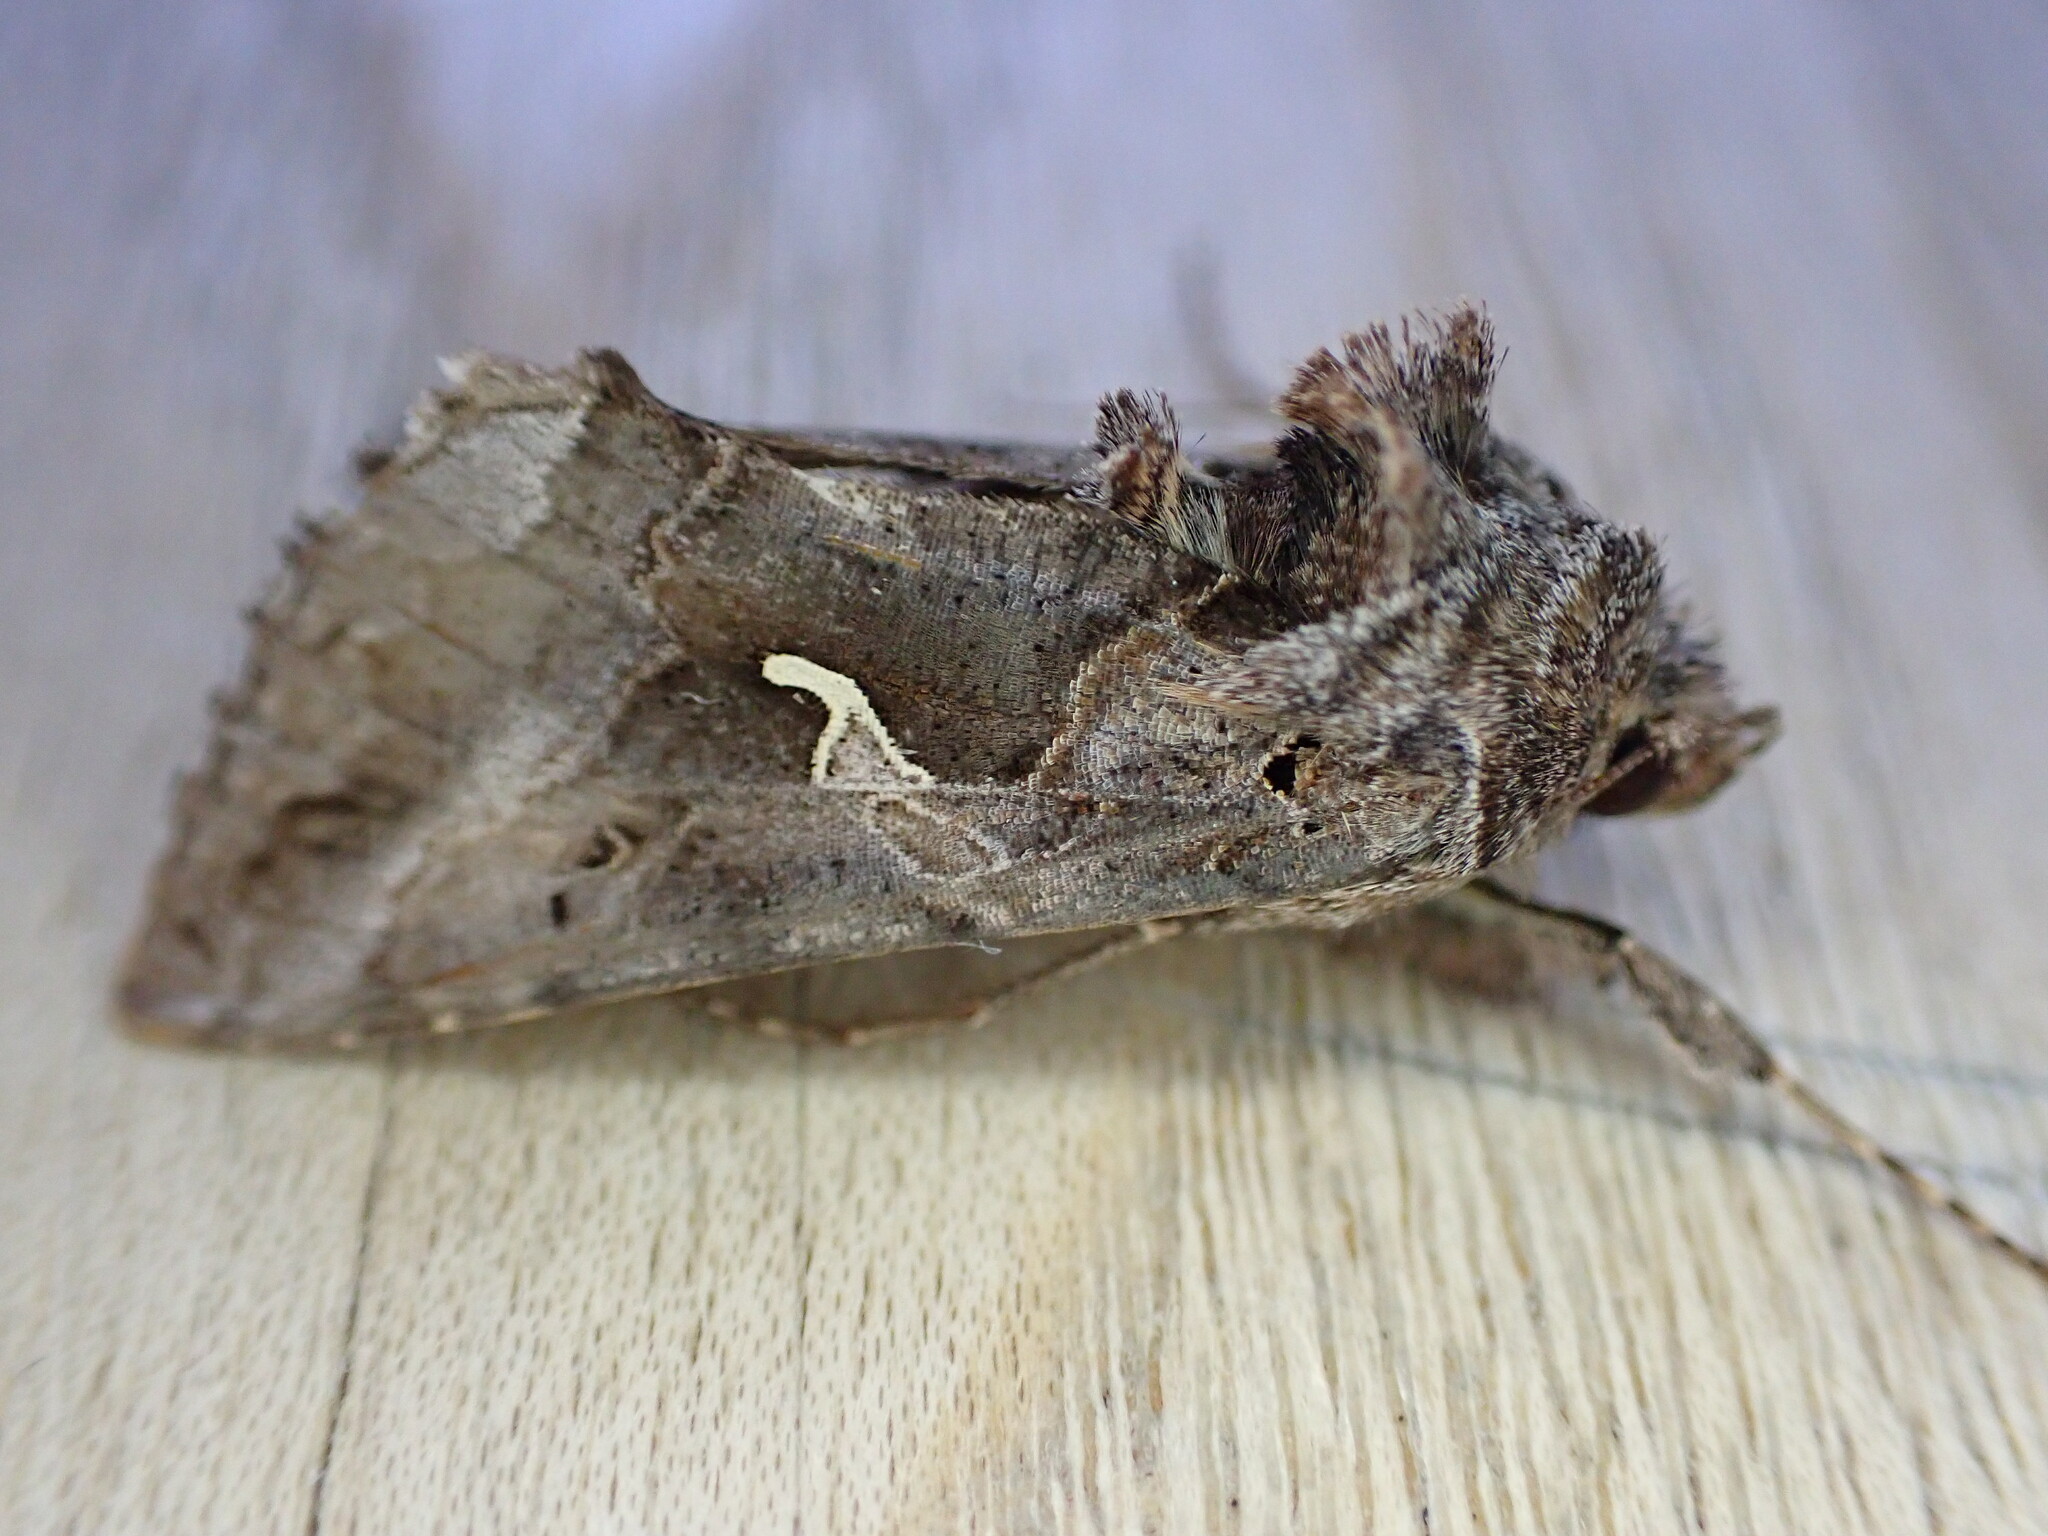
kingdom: Animalia
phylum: Arthropoda
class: Insecta
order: Lepidoptera
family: Noctuidae
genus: Autographa
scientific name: Autographa gamma
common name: Silver y
